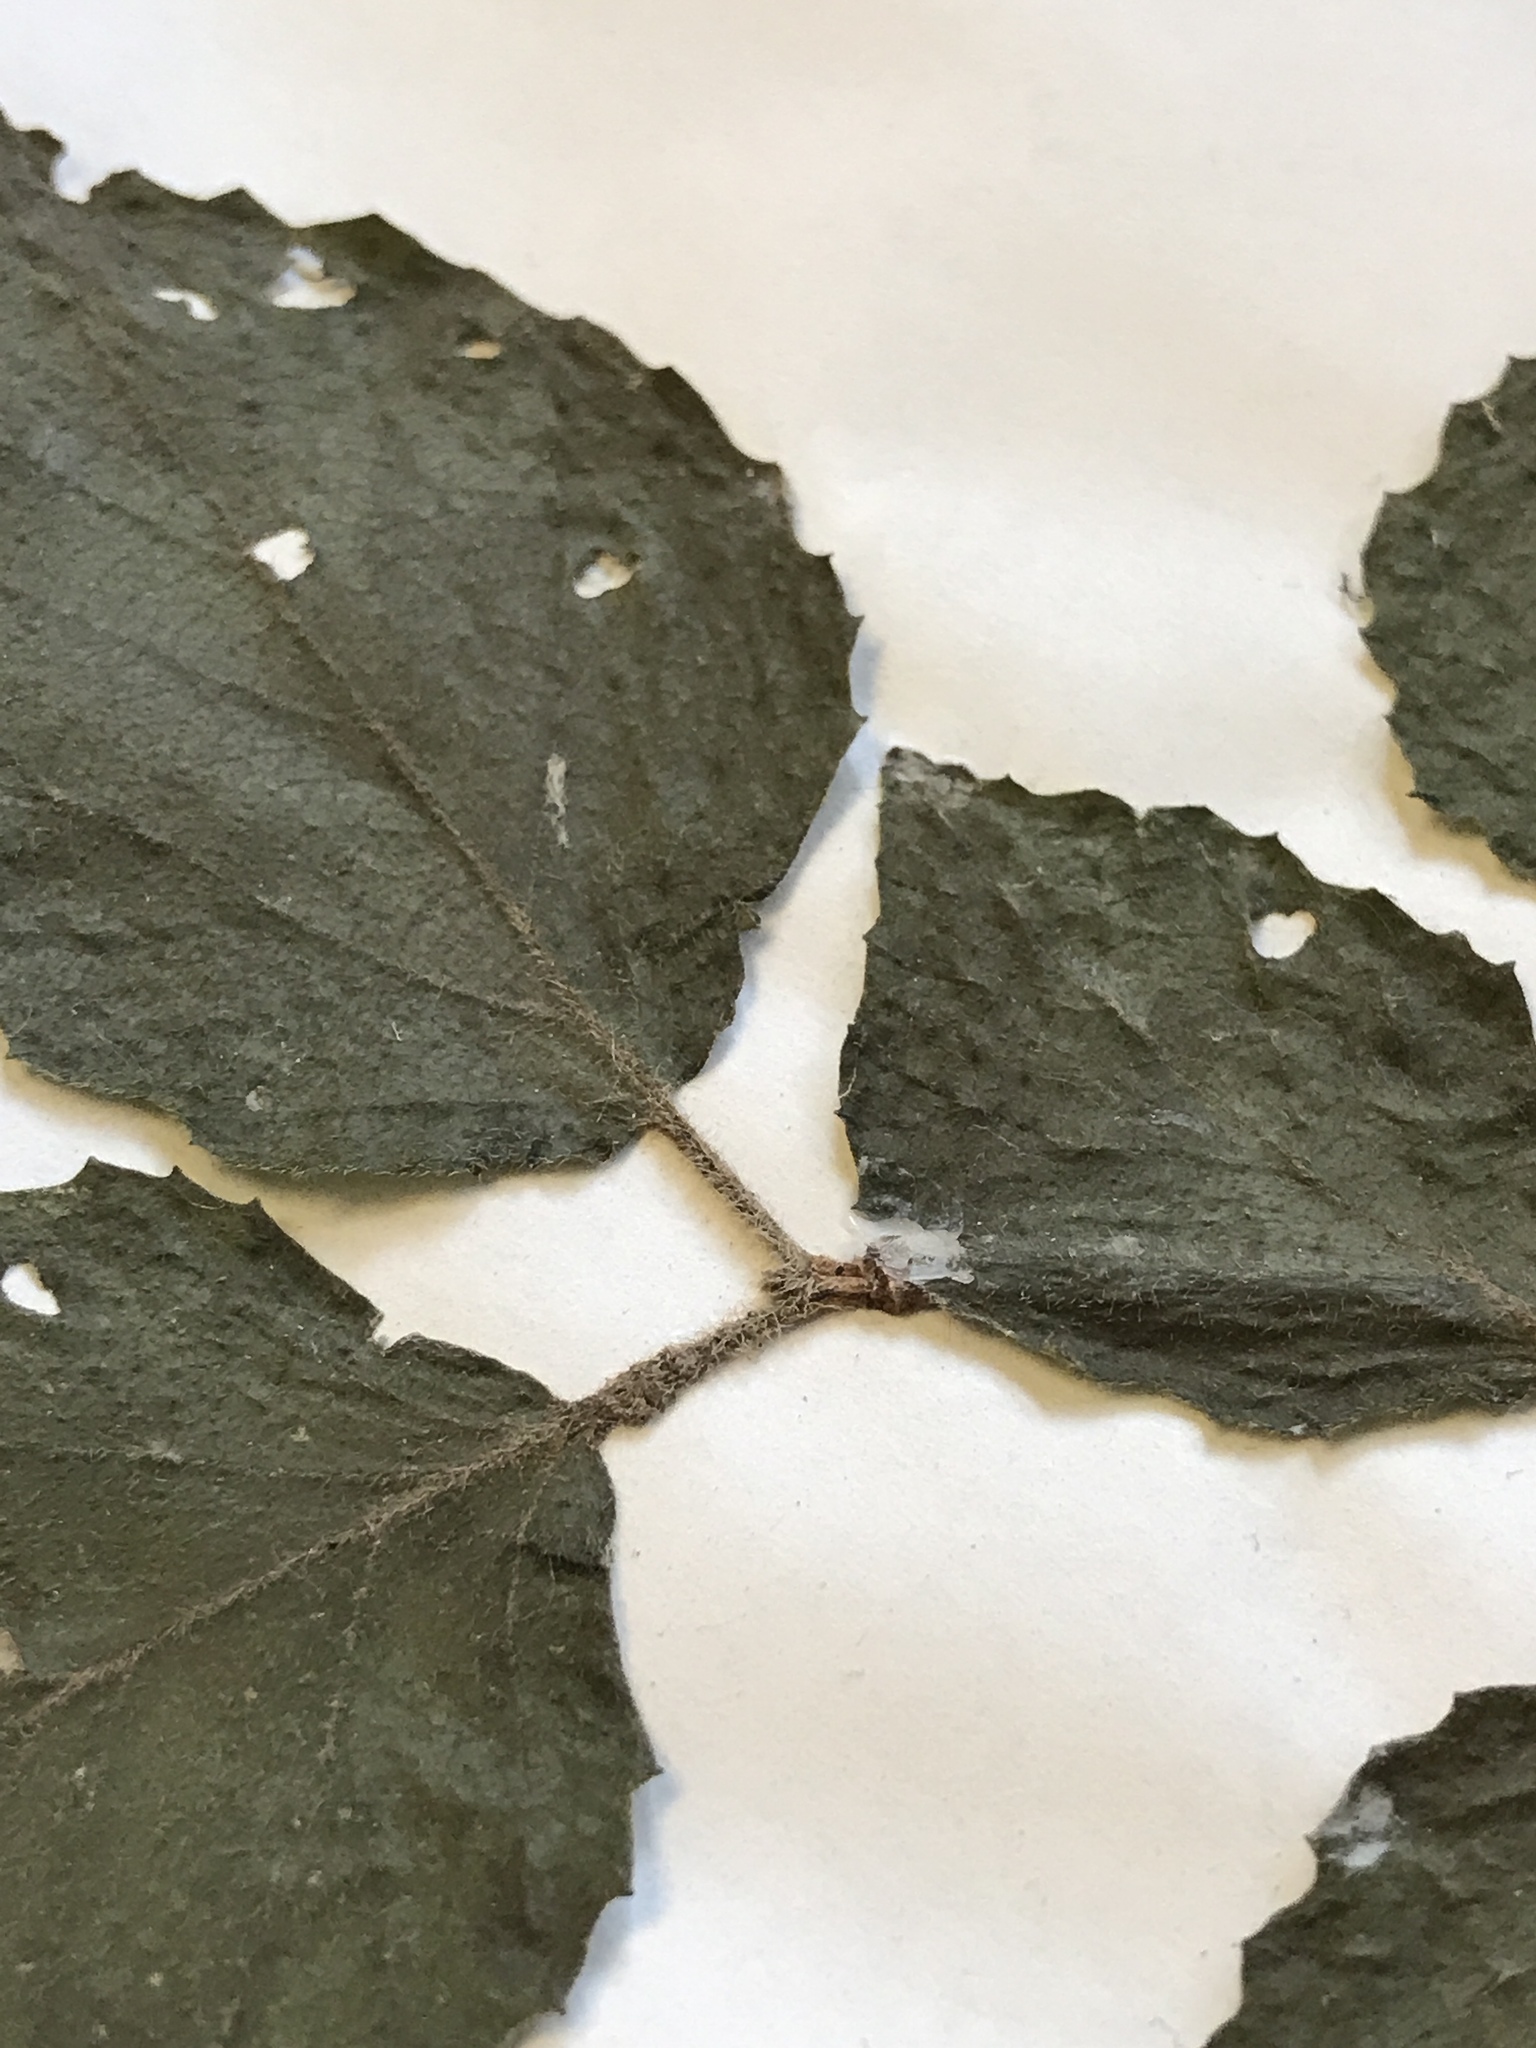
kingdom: Plantae
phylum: Tracheophyta
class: Magnoliopsida
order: Dipsacales
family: Viburnaceae
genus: Viburnum
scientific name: Viburnum rafinesqueanum
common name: Downy arrow-wood
